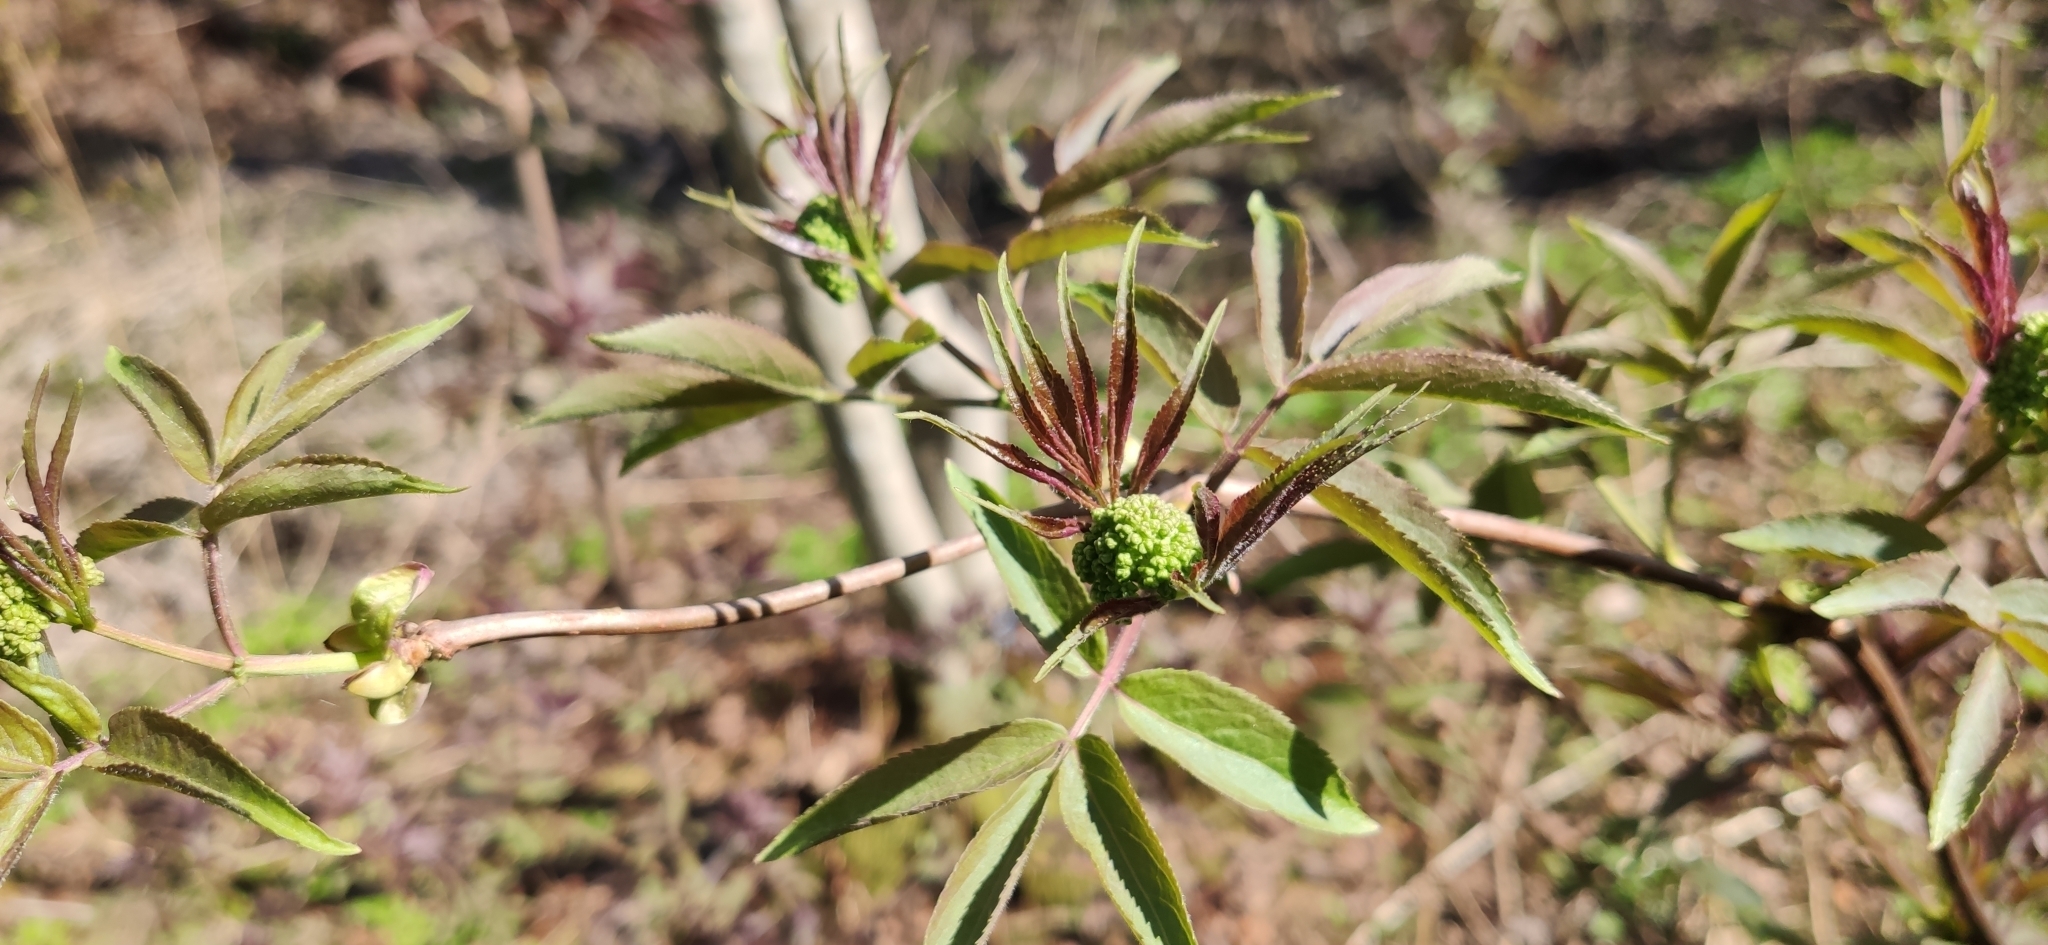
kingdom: Plantae
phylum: Tracheophyta
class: Magnoliopsida
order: Dipsacales
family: Viburnaceae
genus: Sambucus
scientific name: Sambucus racemosa
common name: Red-berried elder
